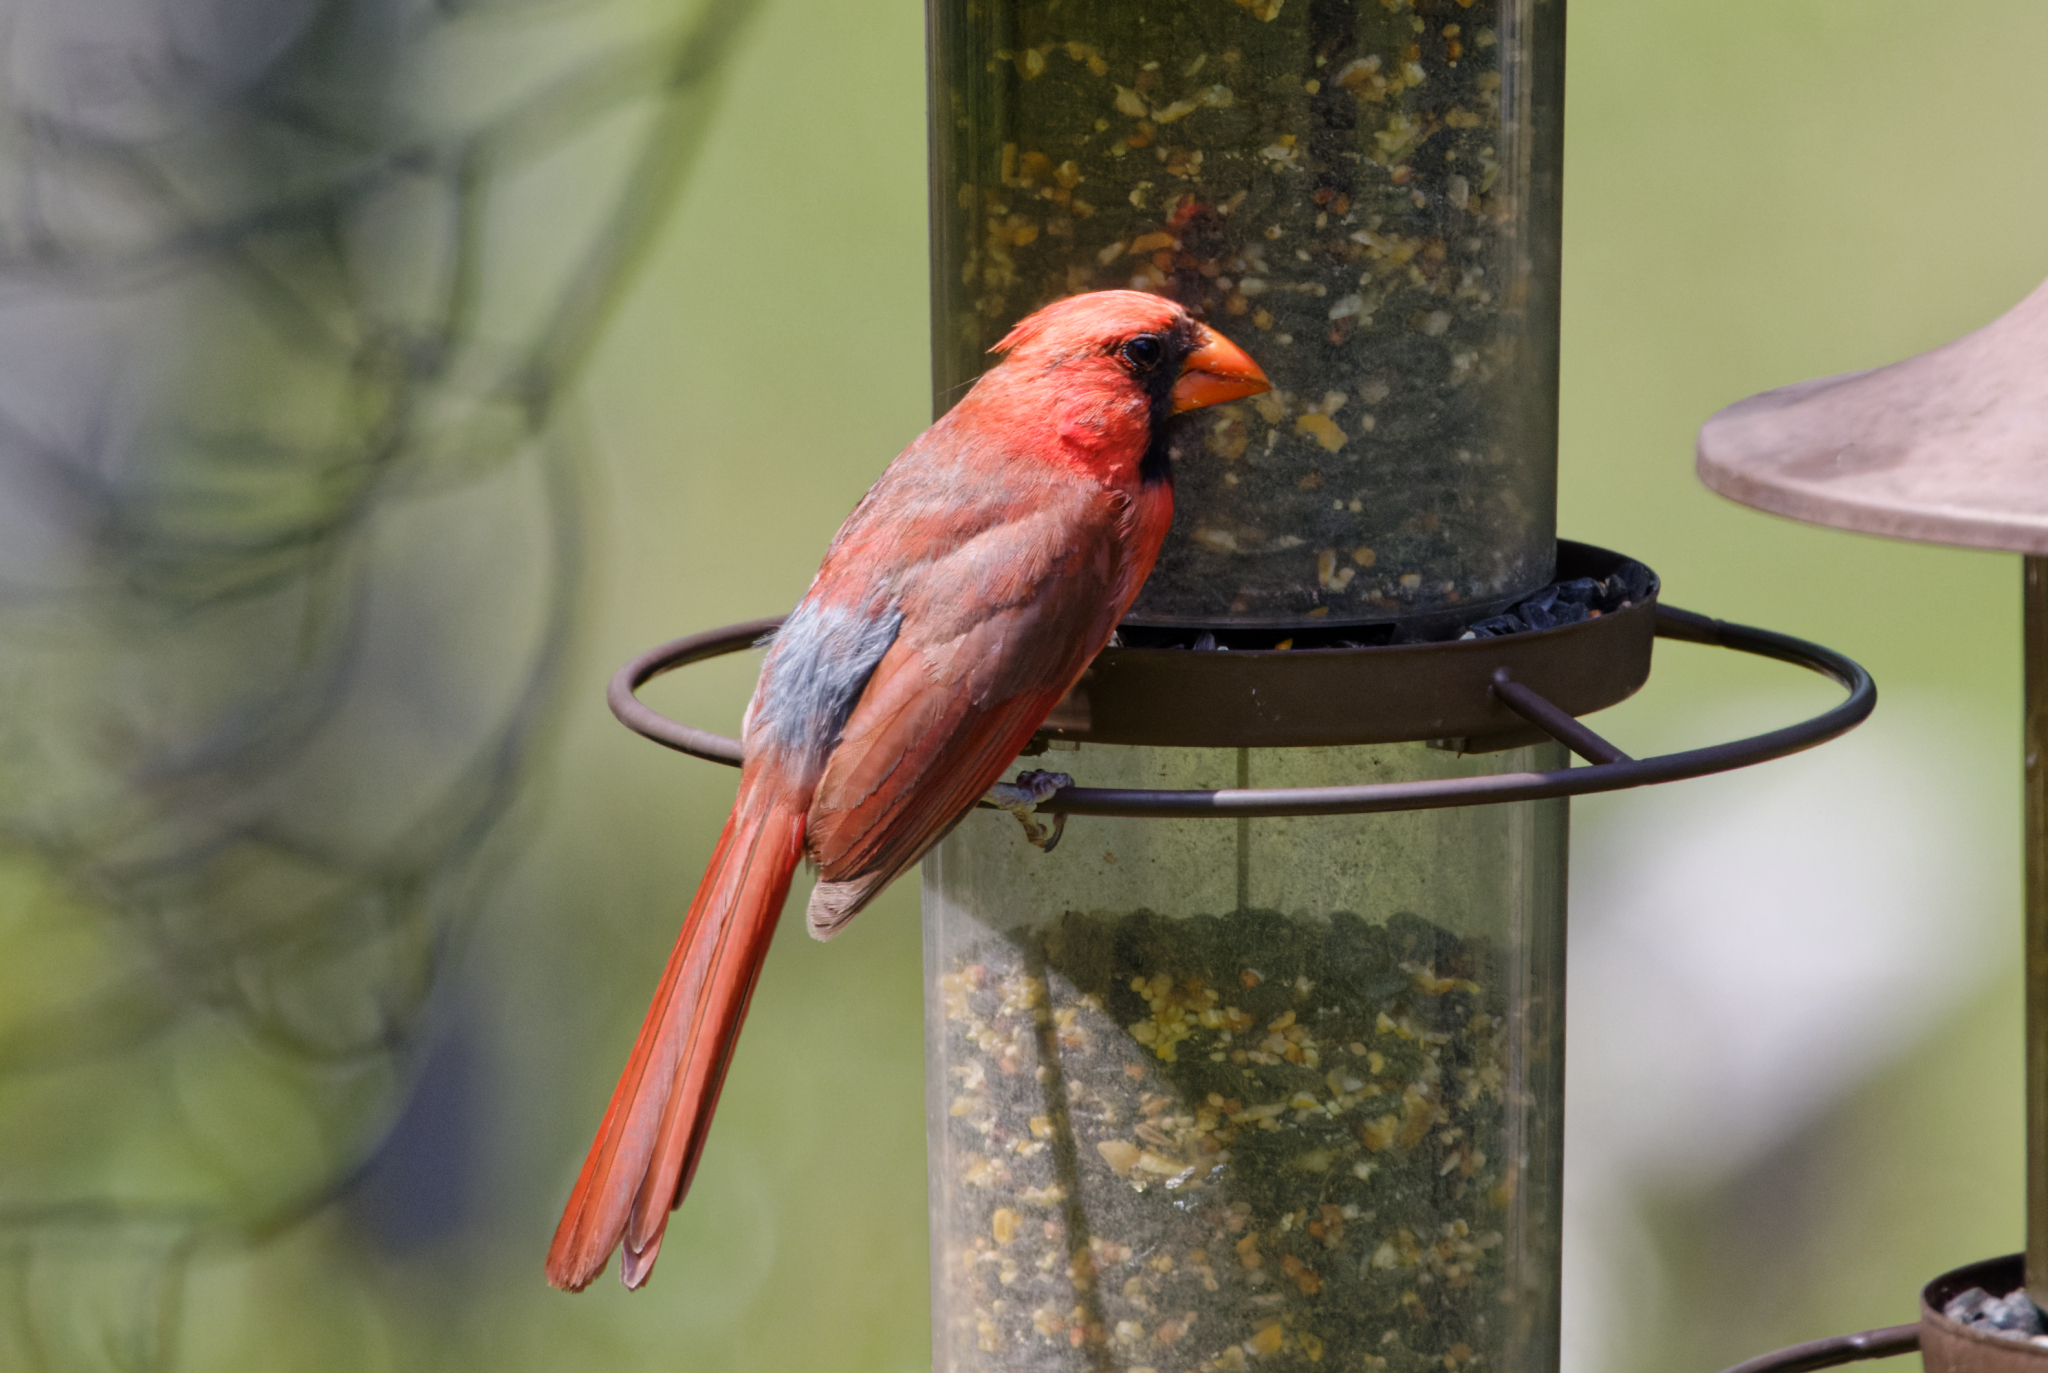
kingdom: Animalia
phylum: Chordata
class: Aves
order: Passeriformes
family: Cardinalidae
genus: Cardinalis
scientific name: Cardinalis cardinalis
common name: Northern cardinal
